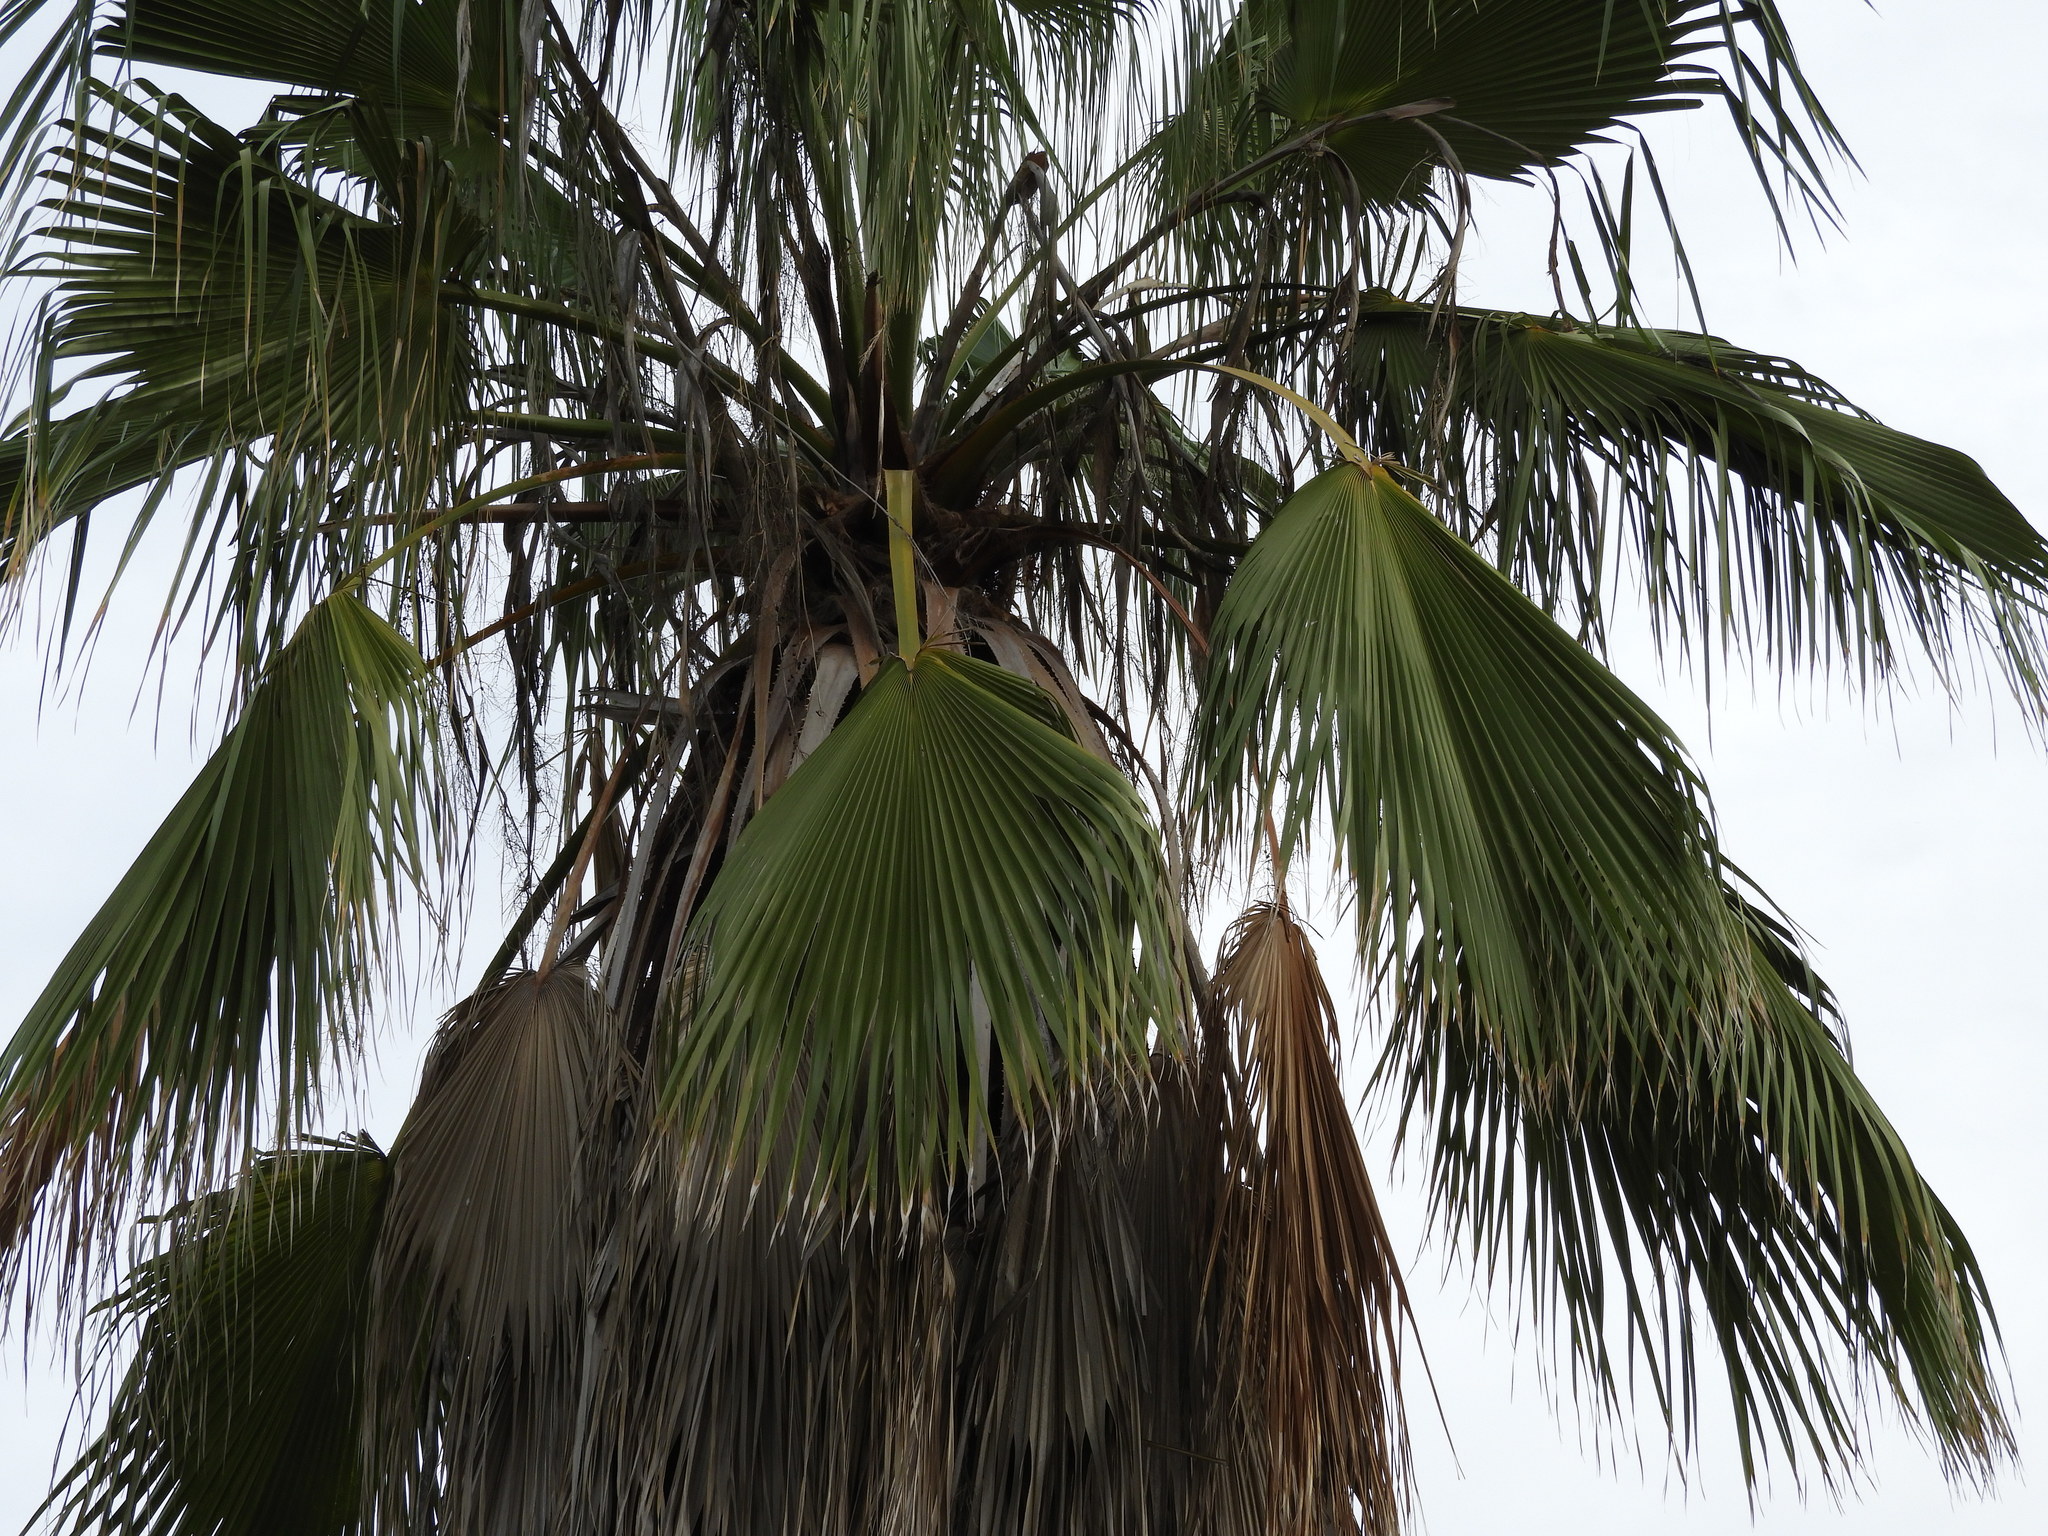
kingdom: Plantae
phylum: Tracheophyta
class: Liliopsida
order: Arecales
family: Arecaceae
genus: Washingtonia
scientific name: Washingtonia filifera
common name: California fan palm
